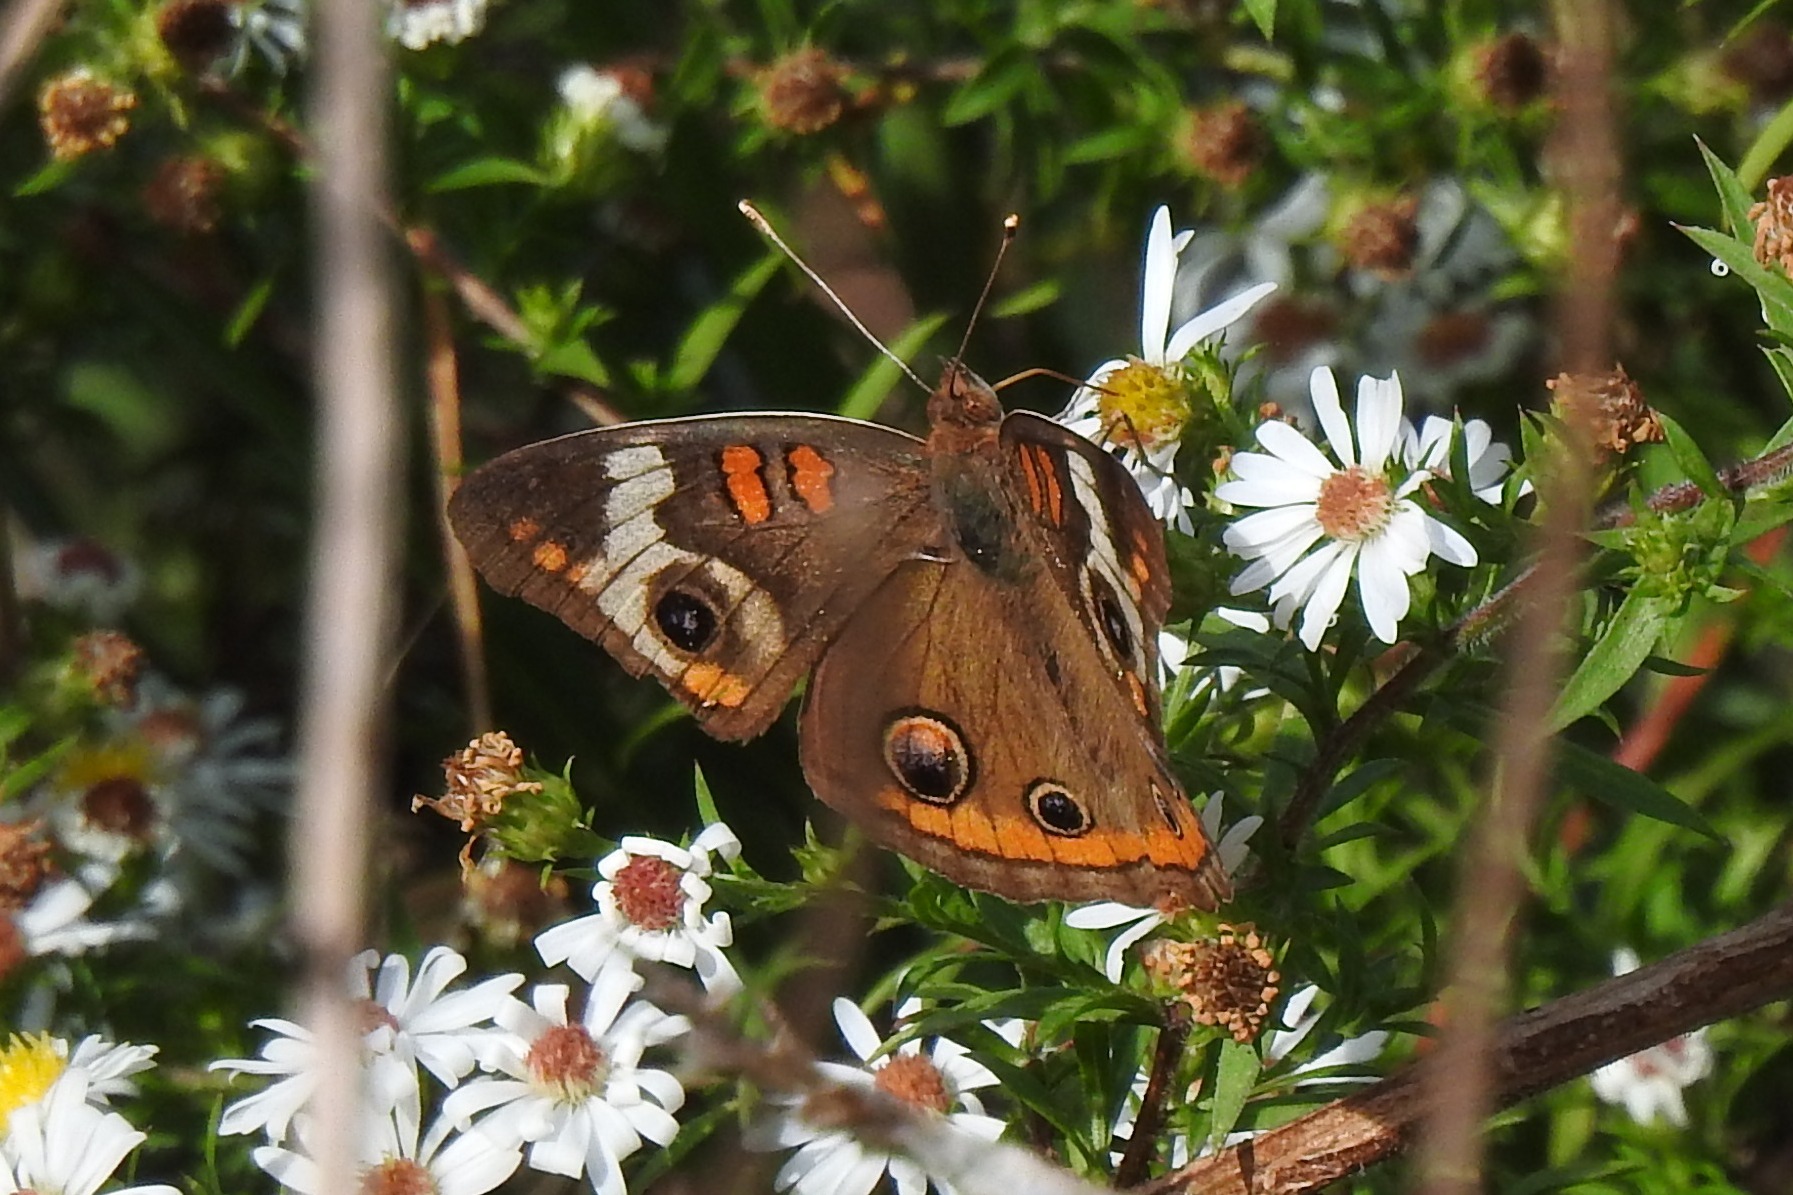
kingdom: Animalia
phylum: Arthropoda
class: Insecta
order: Lepidoptera
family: Nymphalidae
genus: Junonia
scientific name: Junonia coenia
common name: Common buckeye
